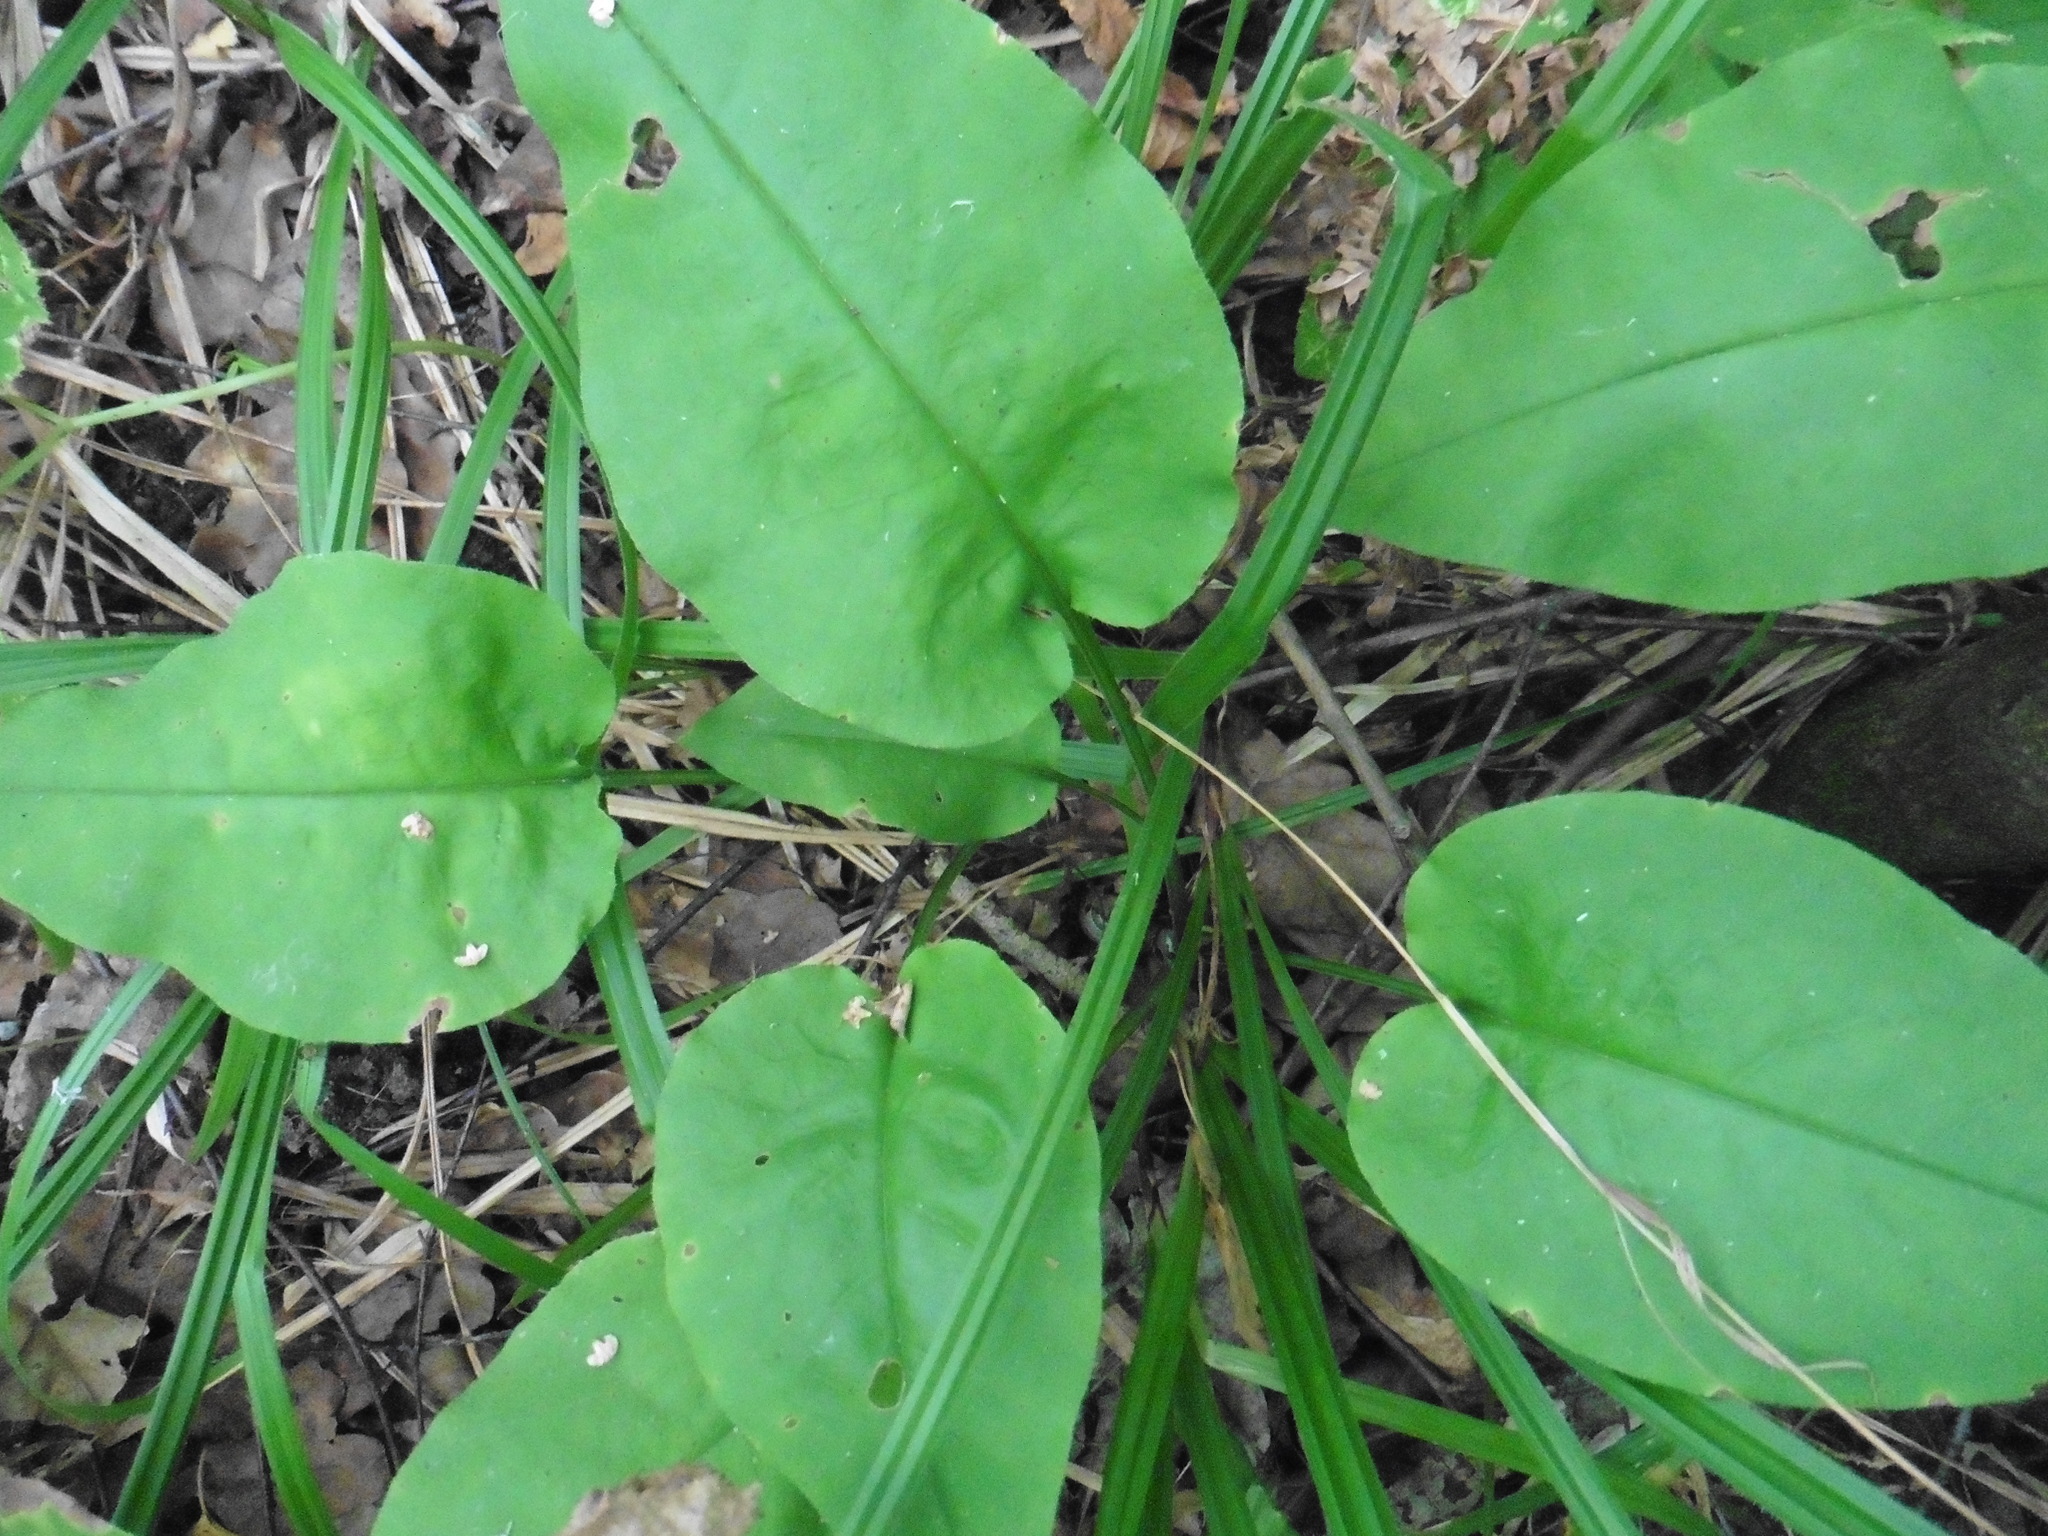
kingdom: Plantae
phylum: Tracheophyta
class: Magnoliopsida
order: Boraginales
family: Boraginaceae
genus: Pulmonaria
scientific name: Pulmonaria obscura
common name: Suffolk lungwort
